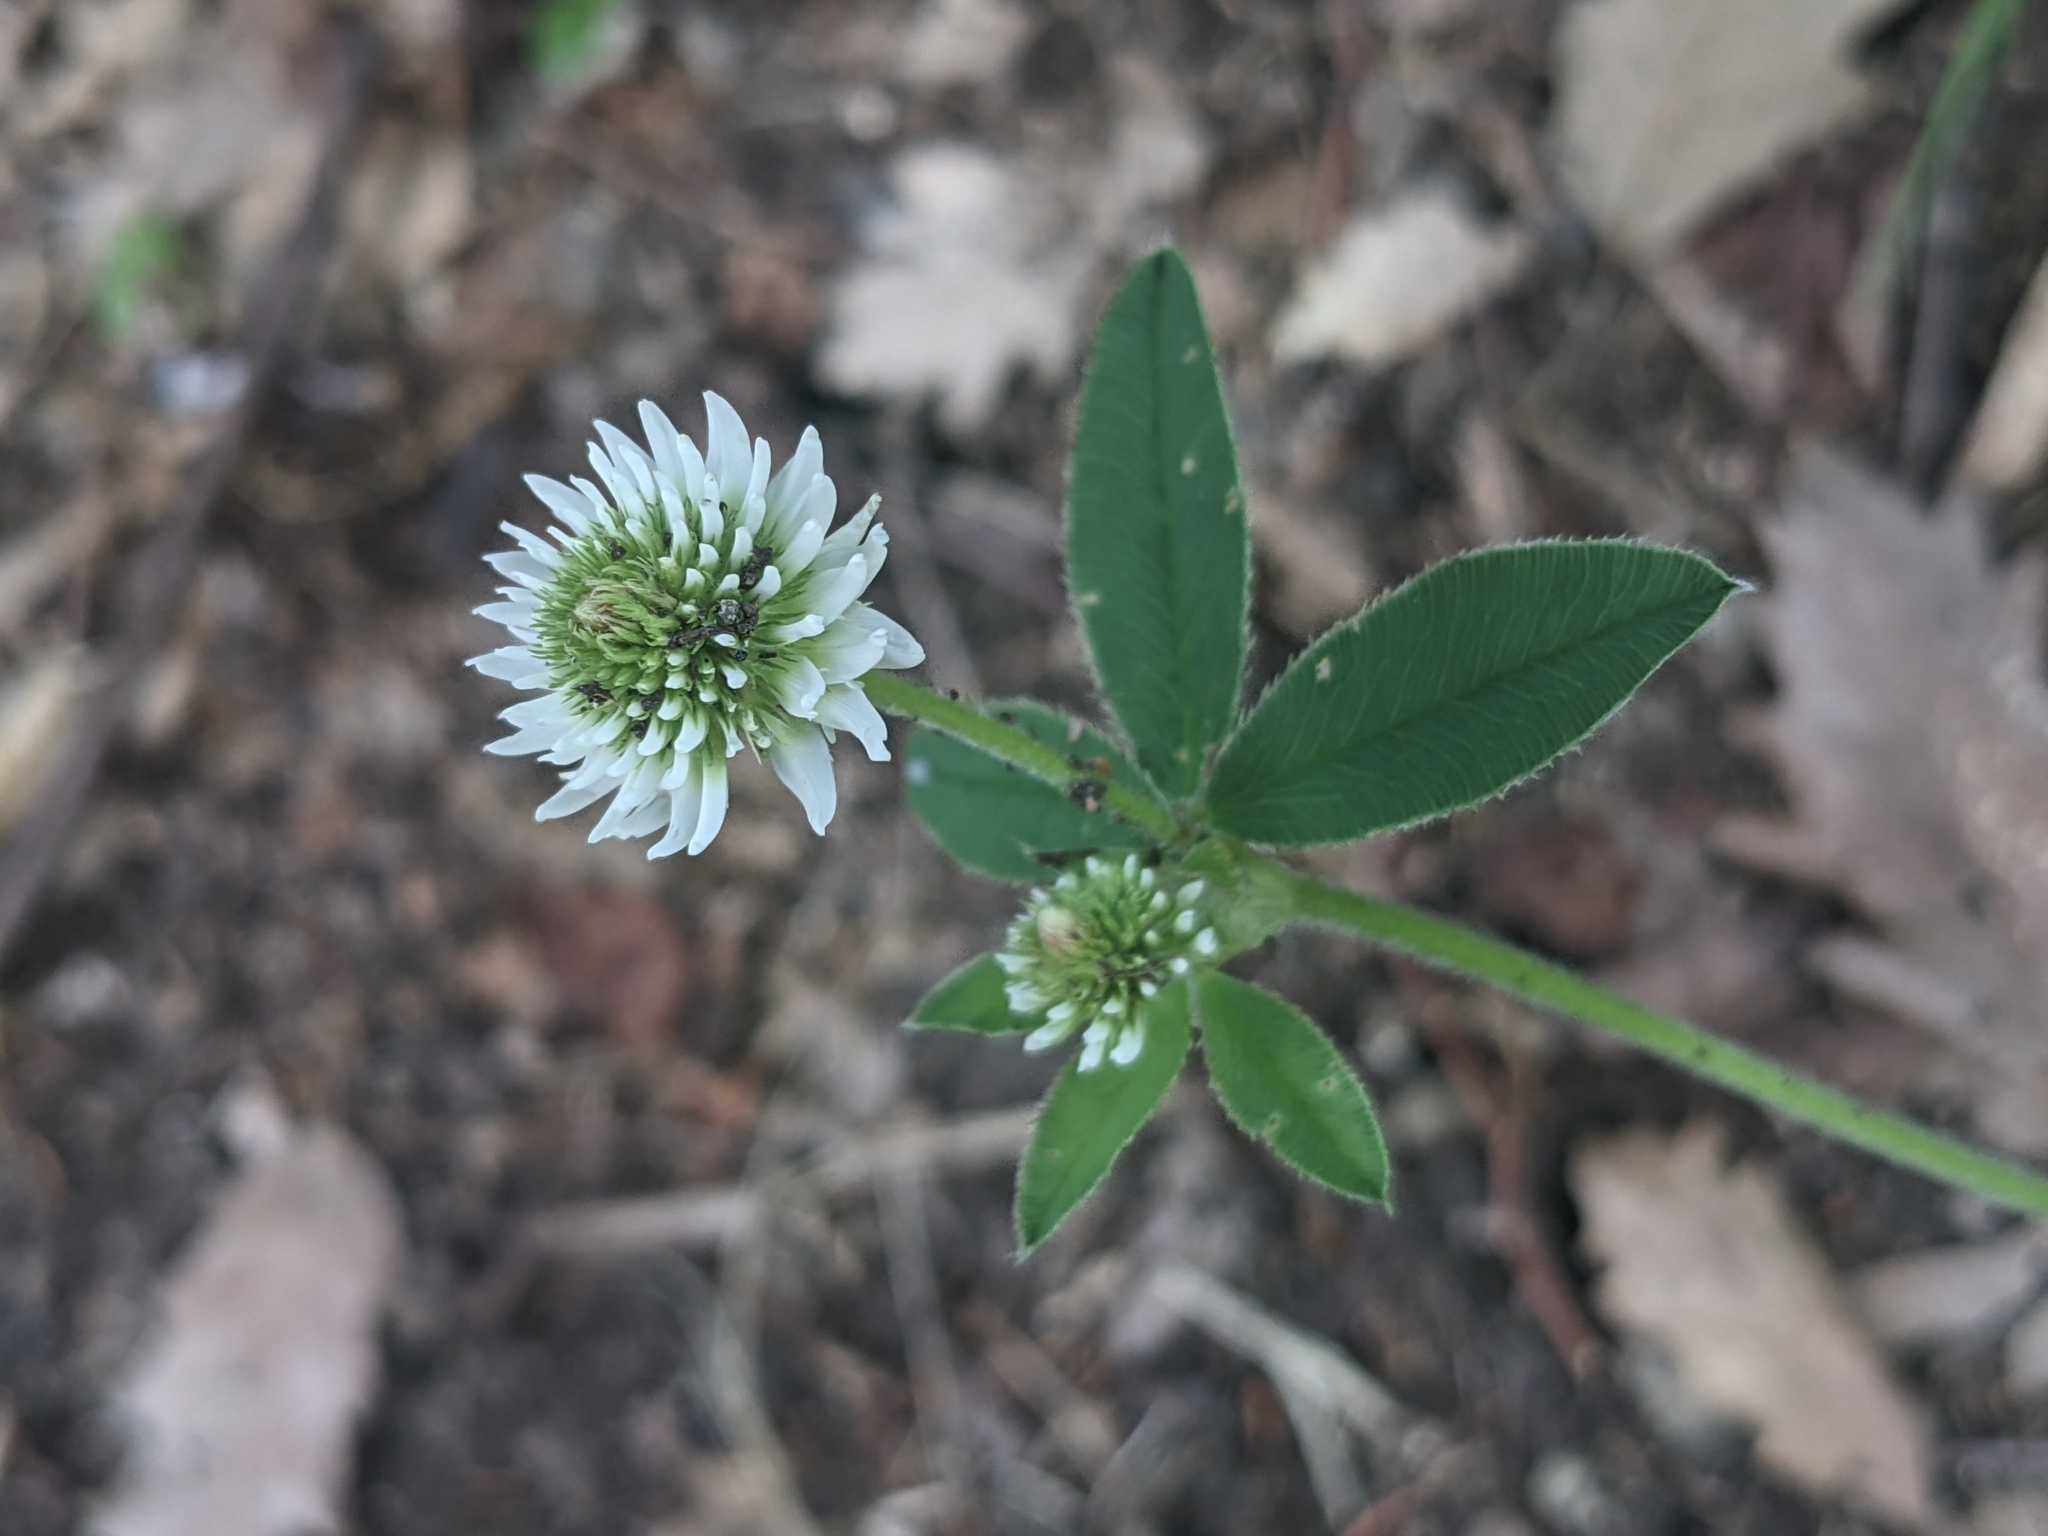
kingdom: Plantae
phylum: Tracheophyta
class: Magnoliopsida
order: Fabales
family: Fabaceae
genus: Trifolium
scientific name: Trifolium montanum
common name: Mountain clover
